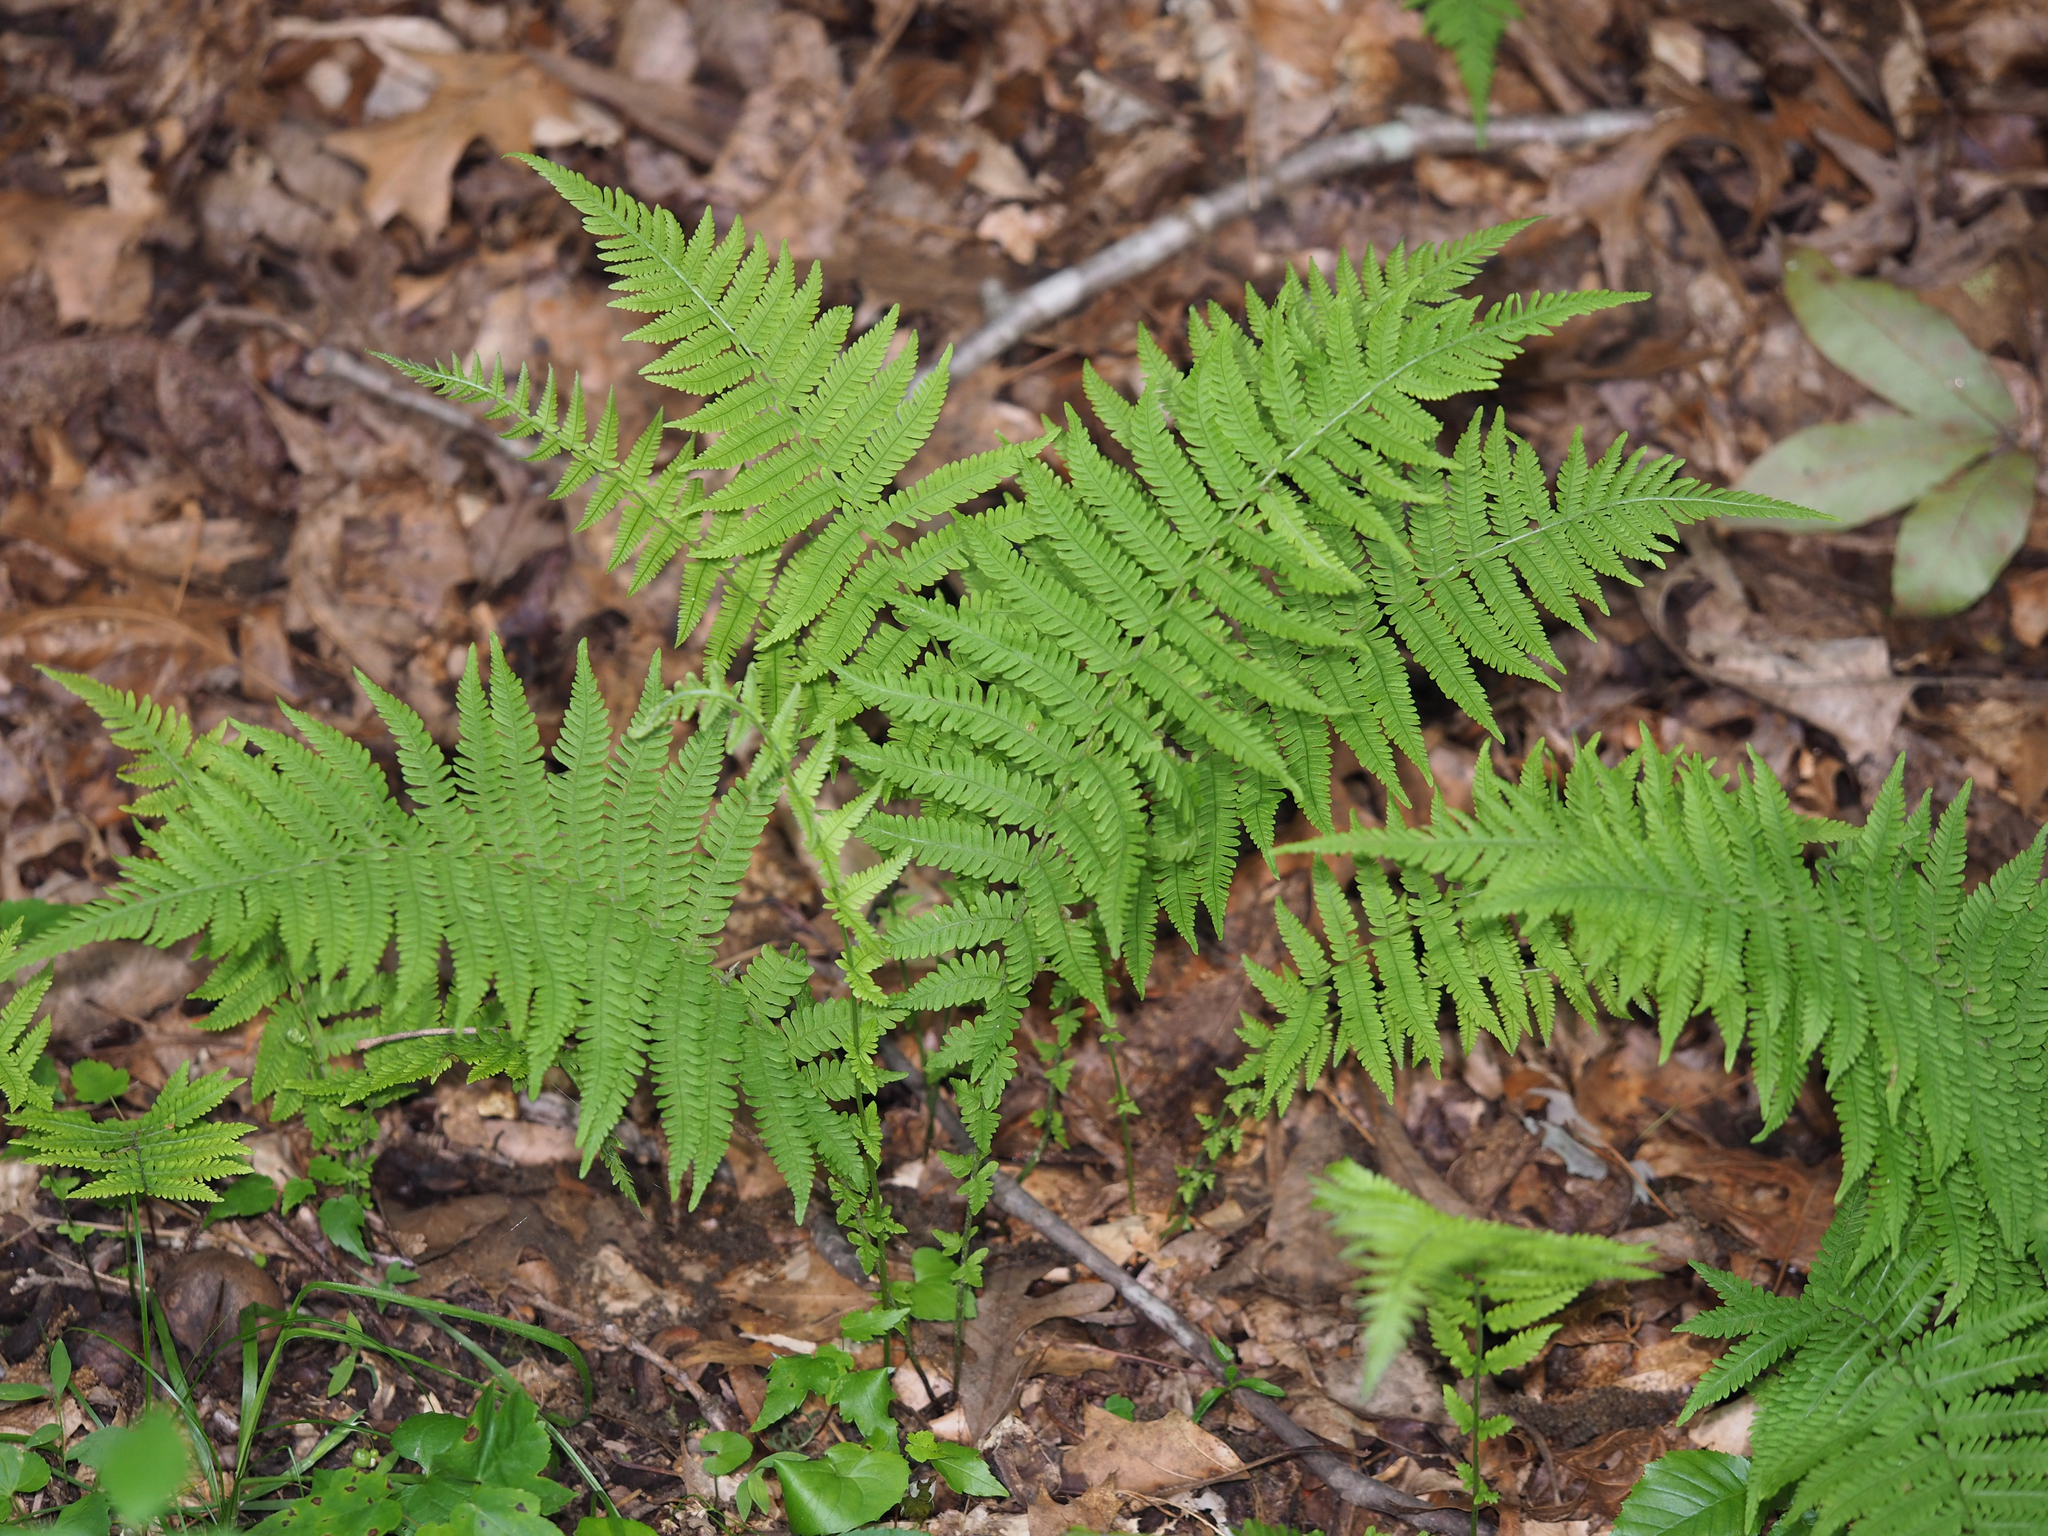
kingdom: Plantae
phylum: Tracheophyta
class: Polypodiopsida
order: Polypodiales
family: Thelypteridaceae
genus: Amauropelta
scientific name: Amauropelta noveboracensis
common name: New york fern
